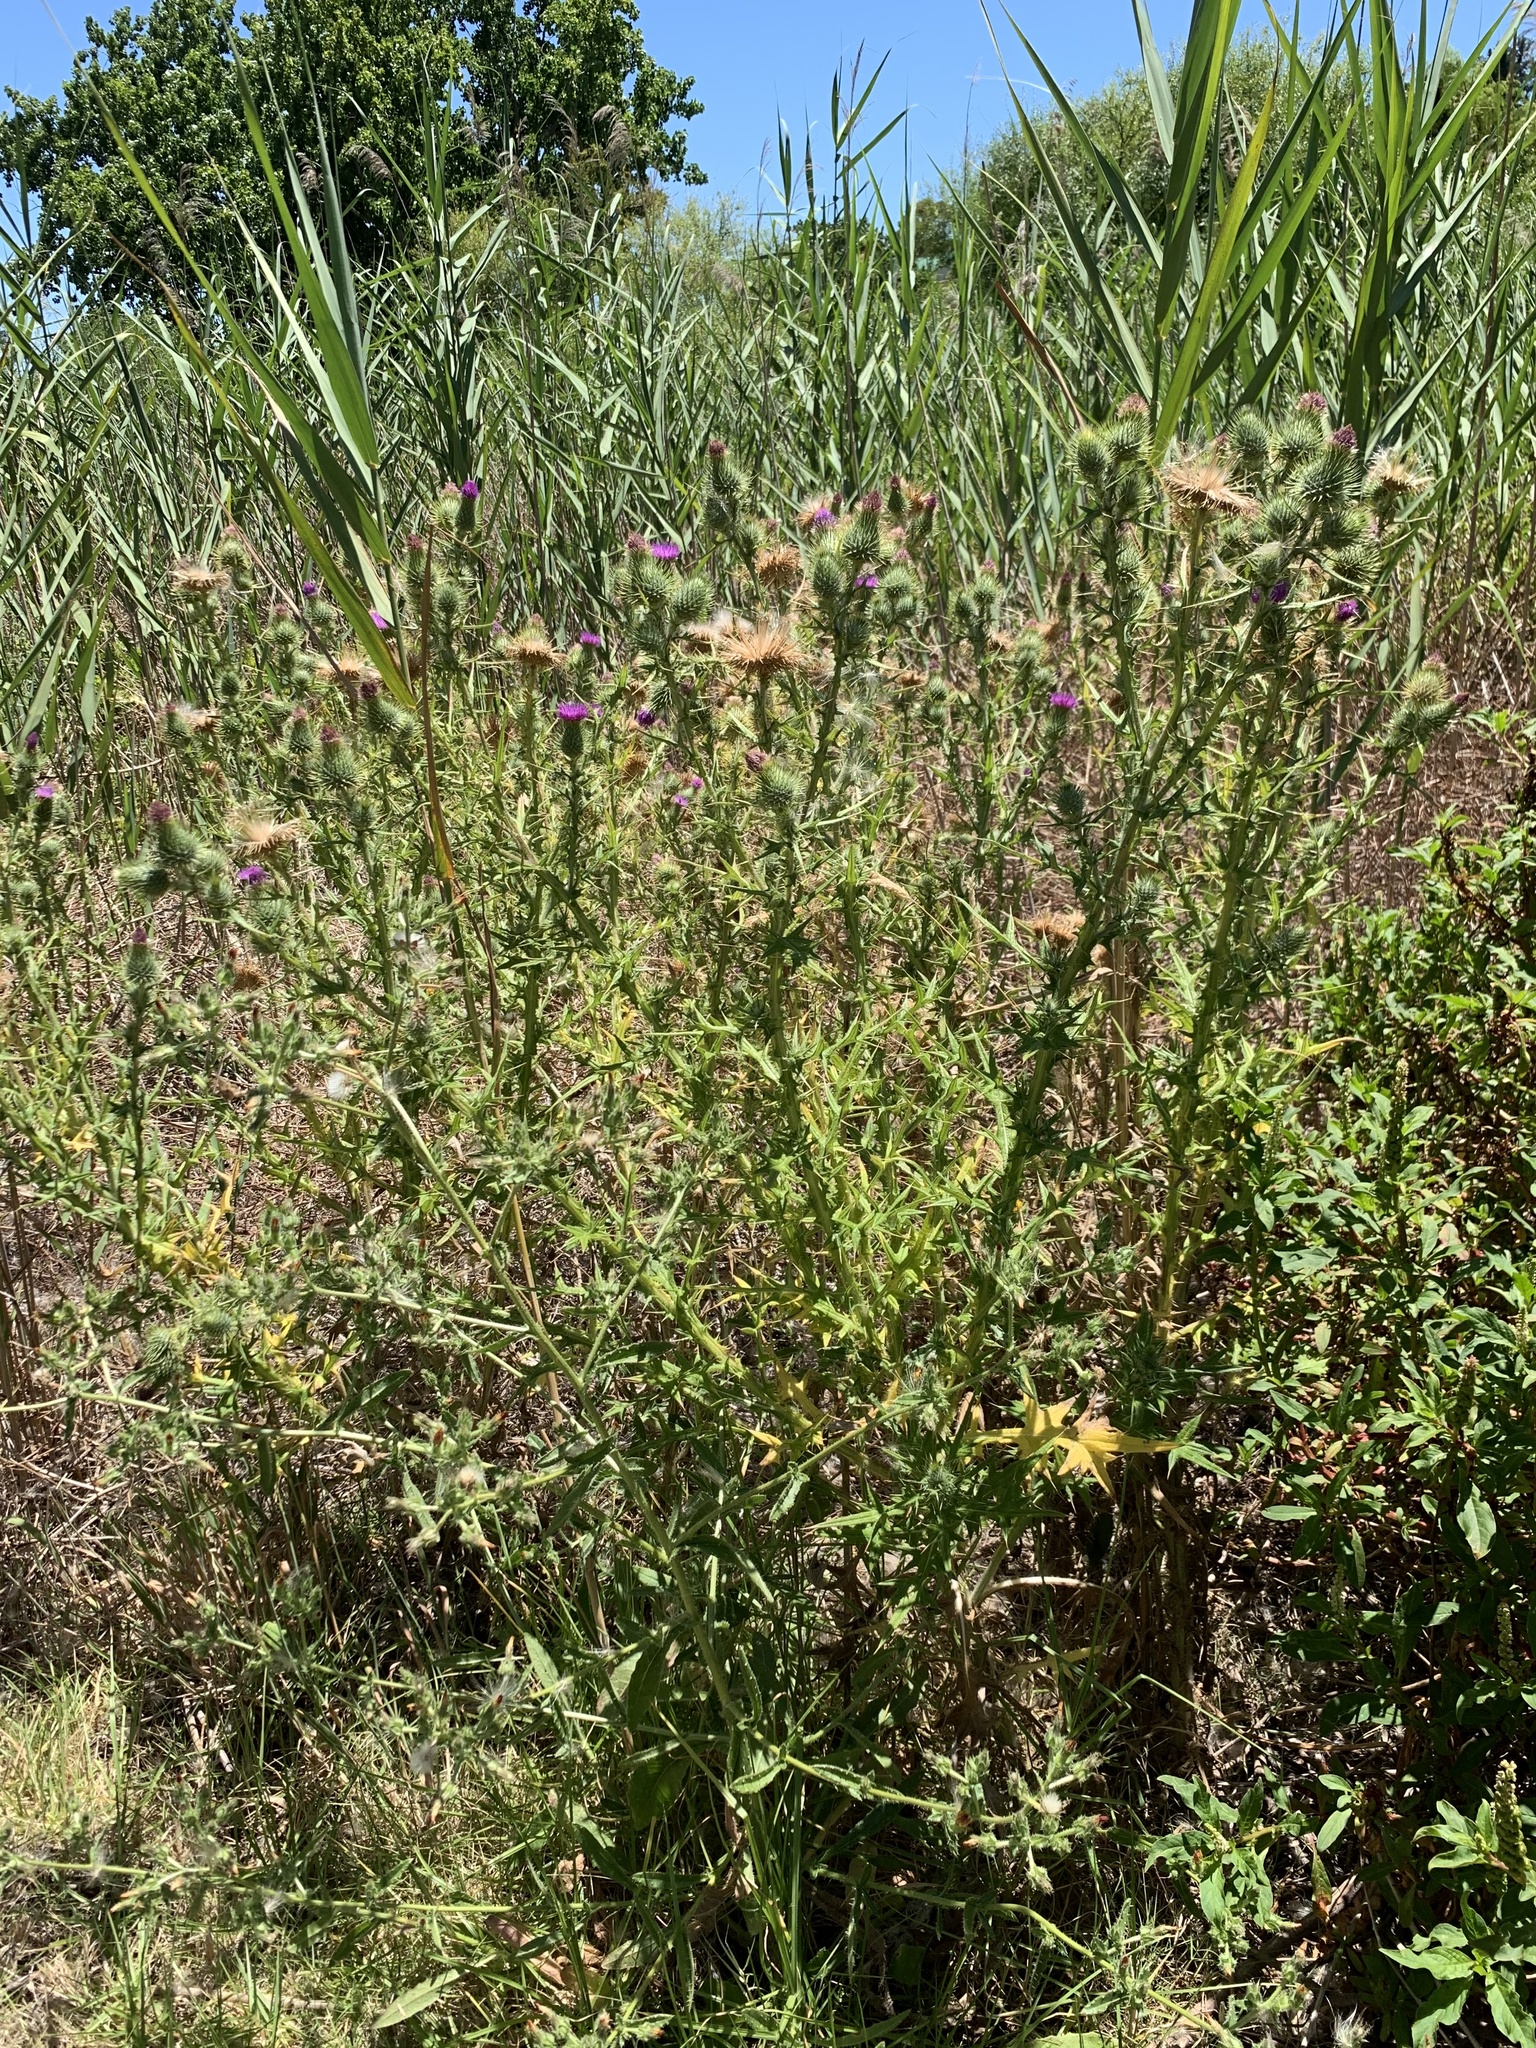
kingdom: Plantae
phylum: Tracheophyta
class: Magnoliopsida
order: Asterales
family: Asteraceae
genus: Cirsium
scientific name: Cirsium vulgare
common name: Bull thistle
